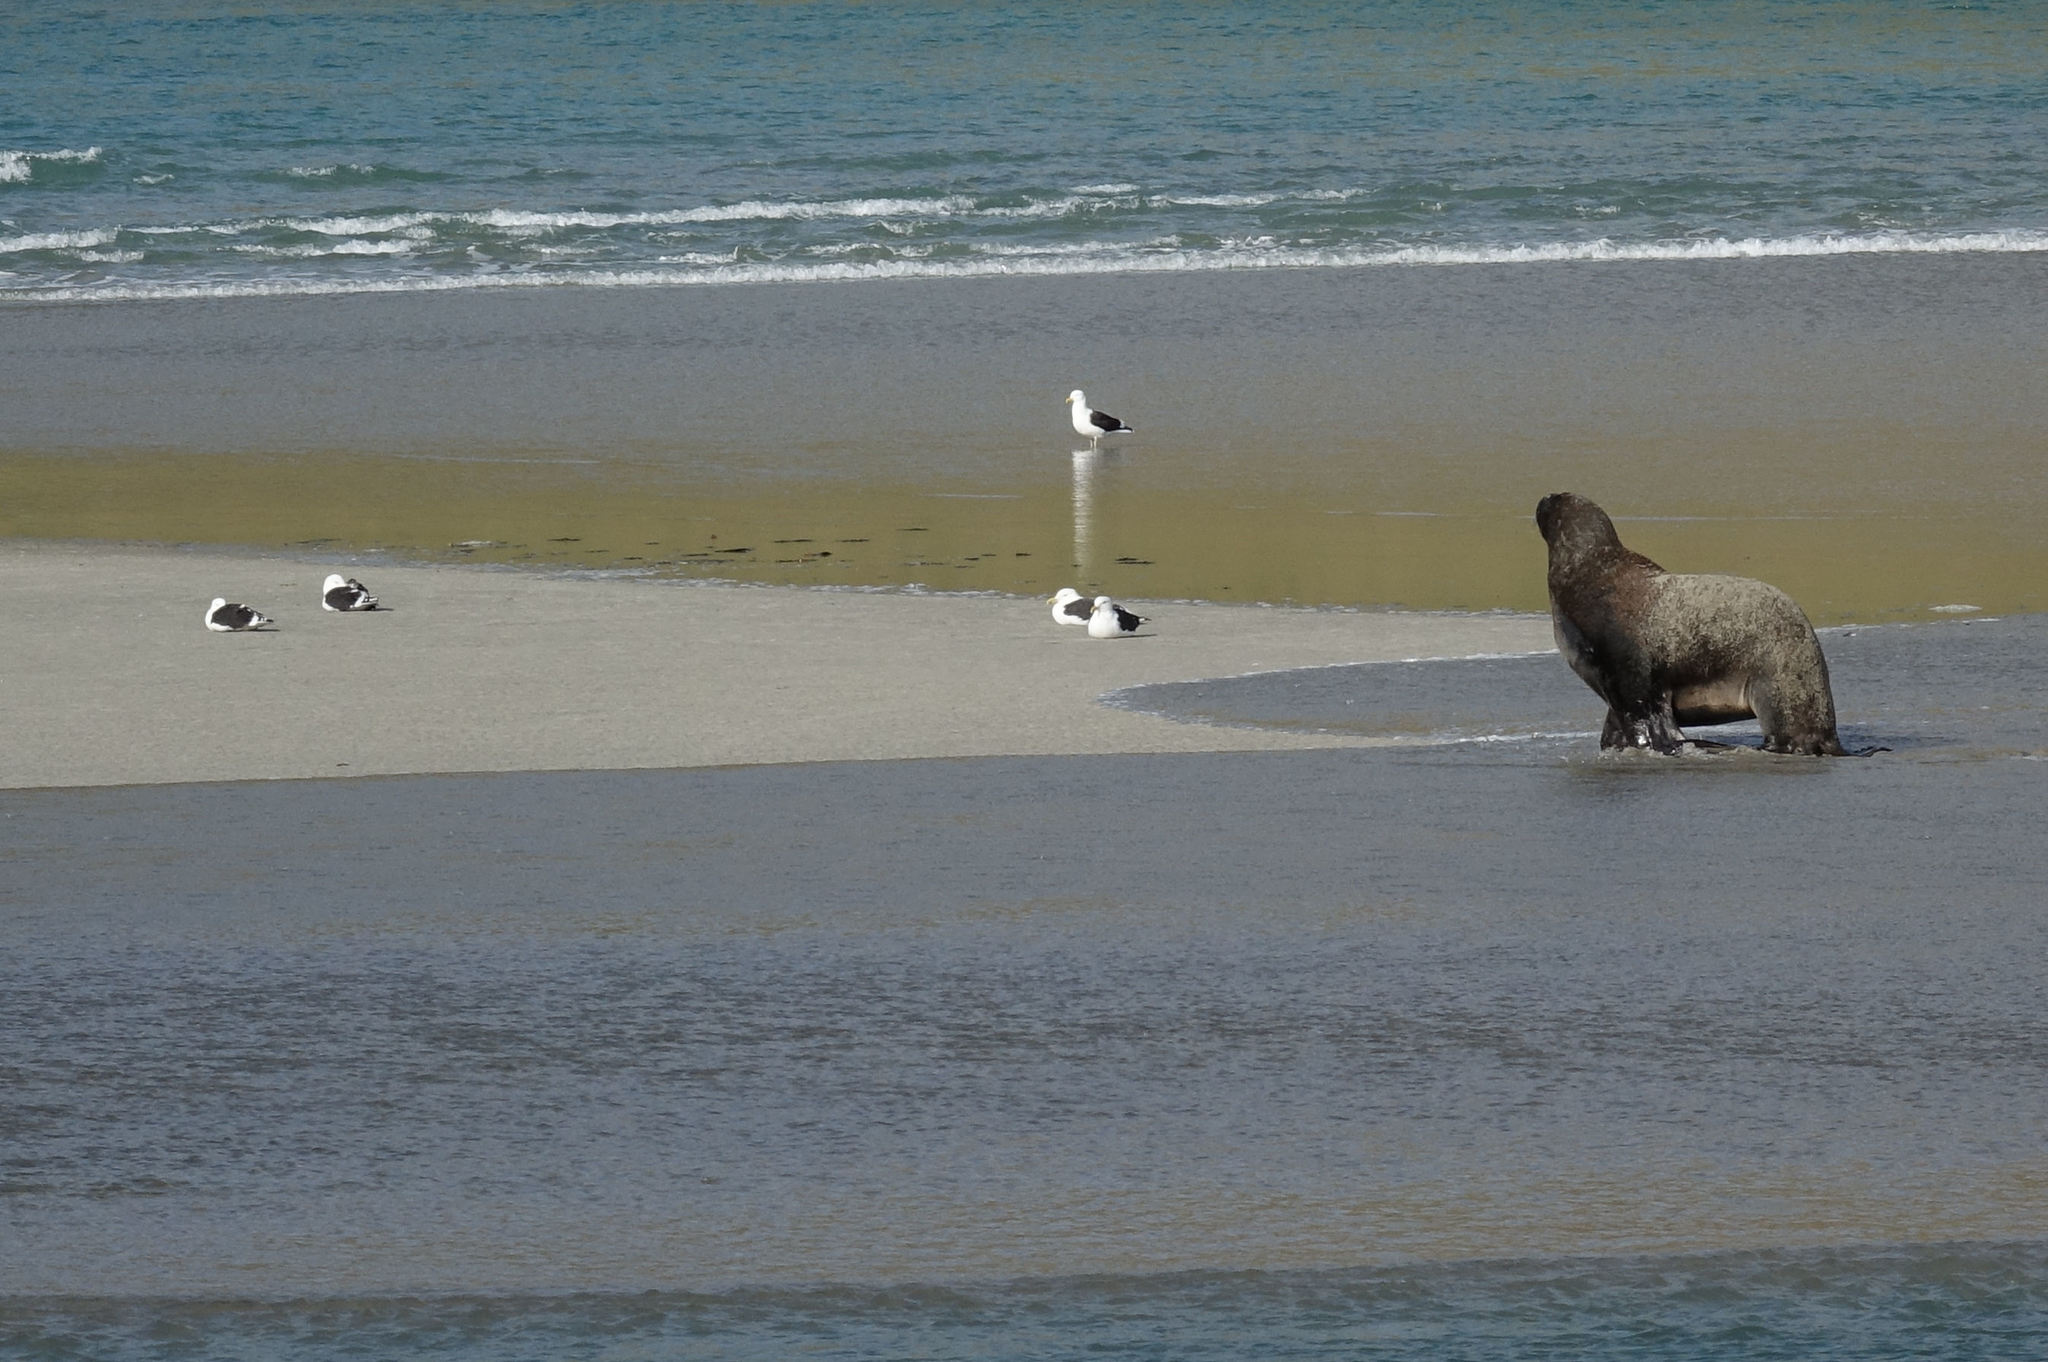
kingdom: Animalia
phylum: Chordata
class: Mammalia
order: Carnivora
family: Otariidae
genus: Phocarctos
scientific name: Phocarctos hookeri
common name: New zealand sea lion
